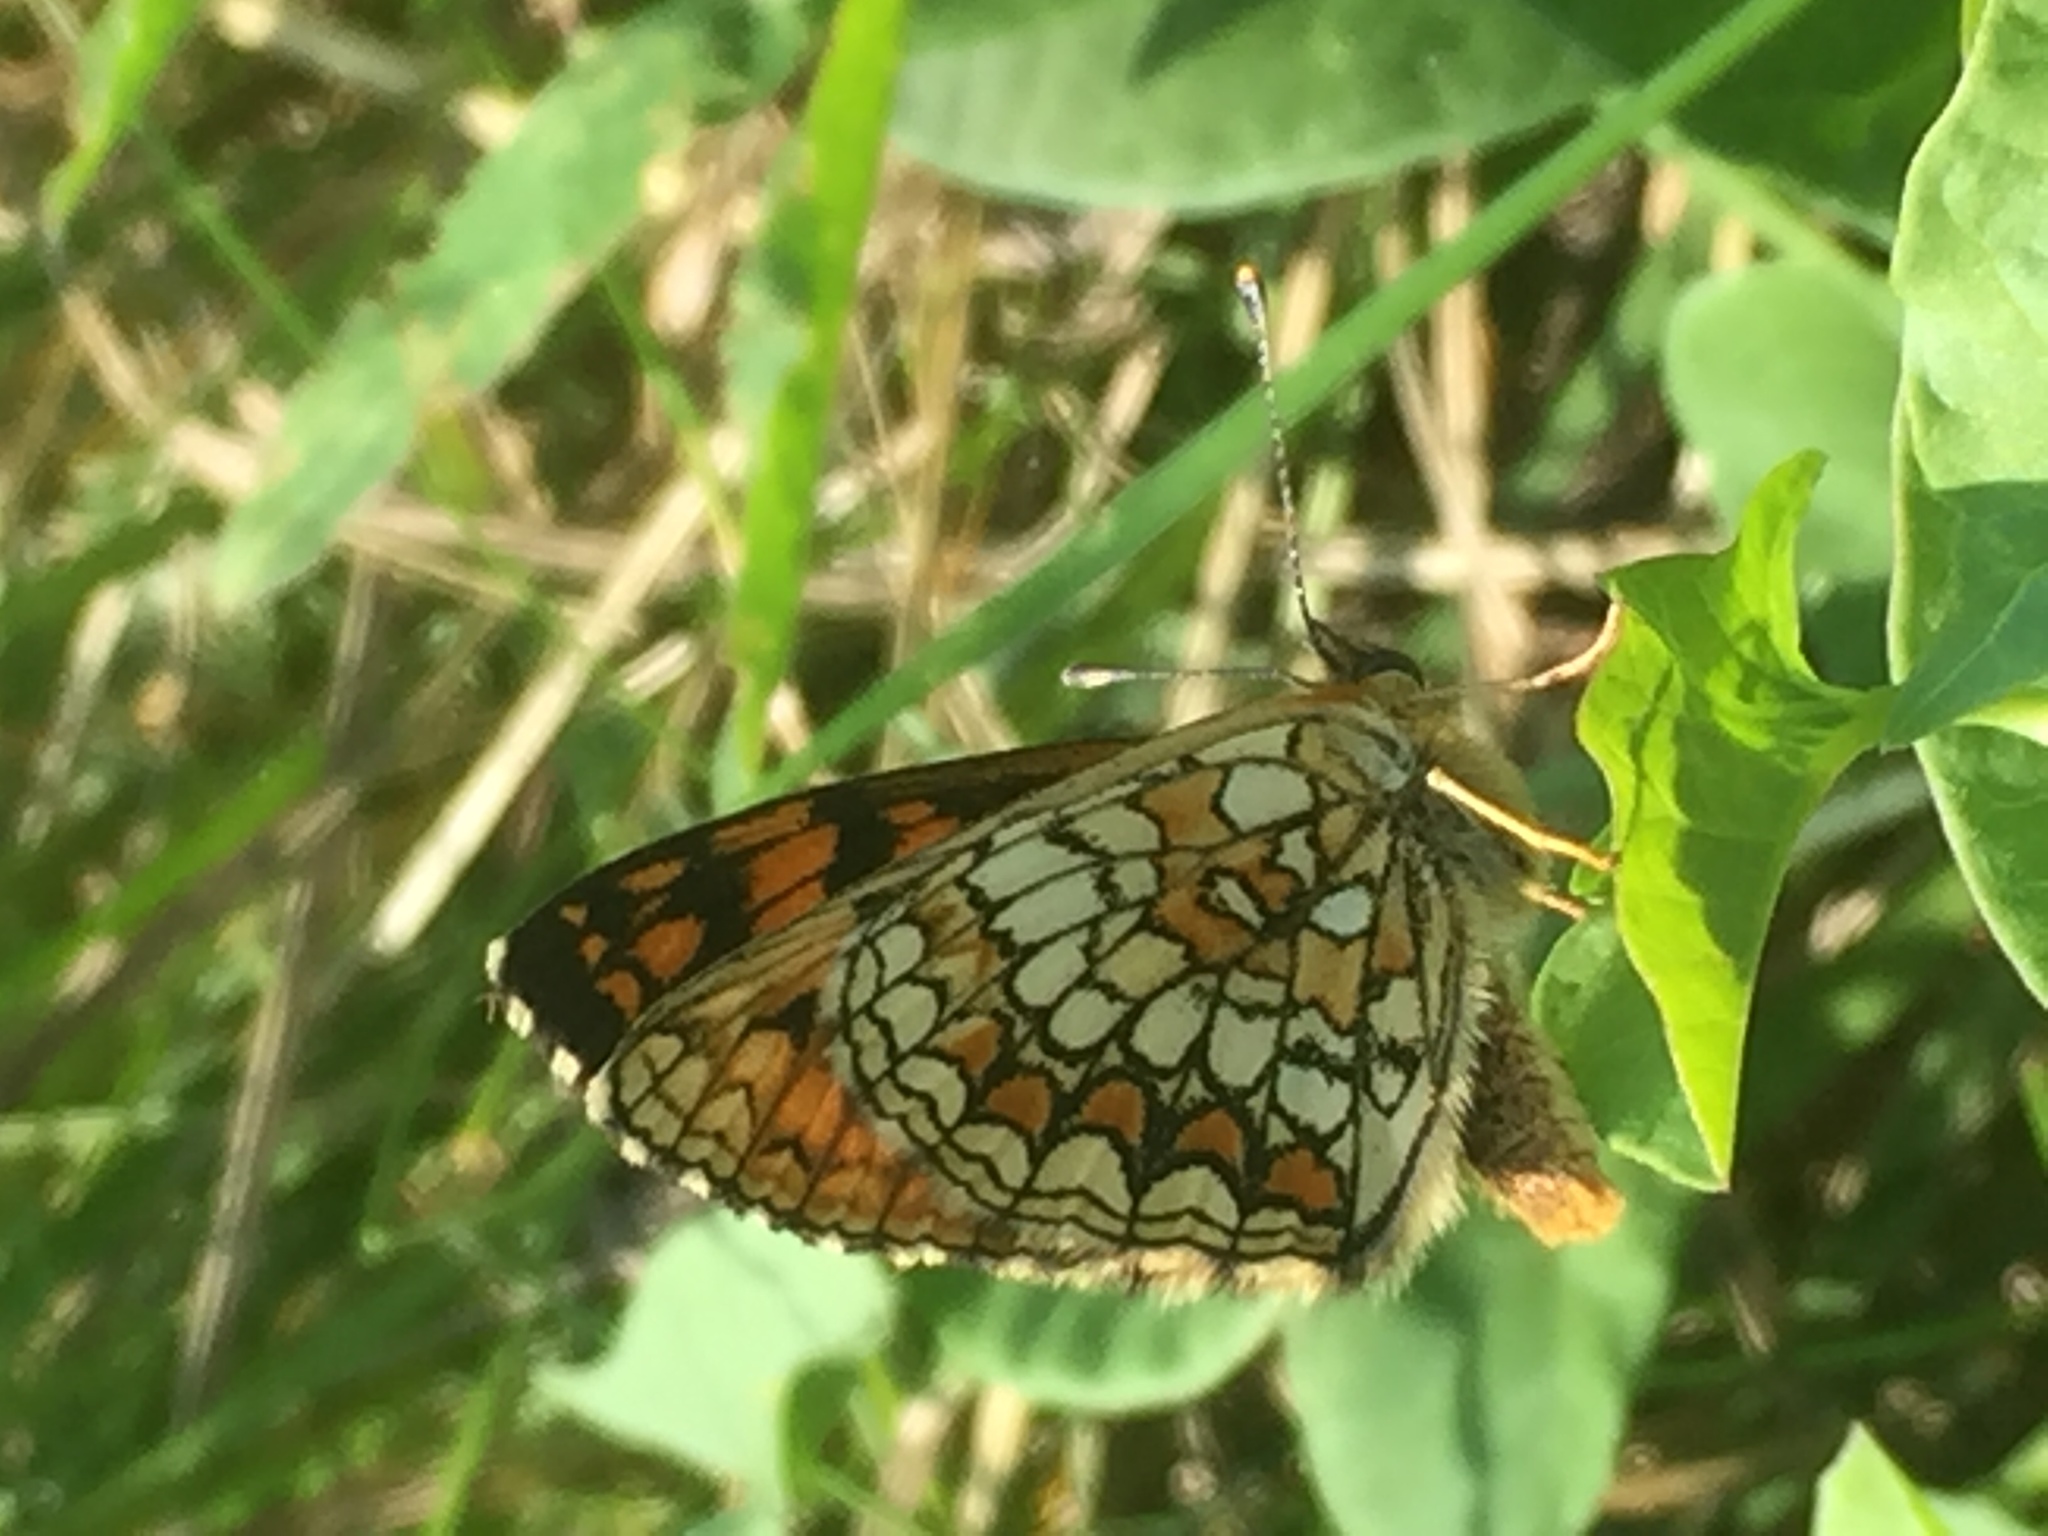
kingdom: Animalia
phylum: Arthropoda
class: Insecta
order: Lepidoptera
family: Nymphalidae
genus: Melitaea
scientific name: Melitaea athalia
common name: Heath fritillary
